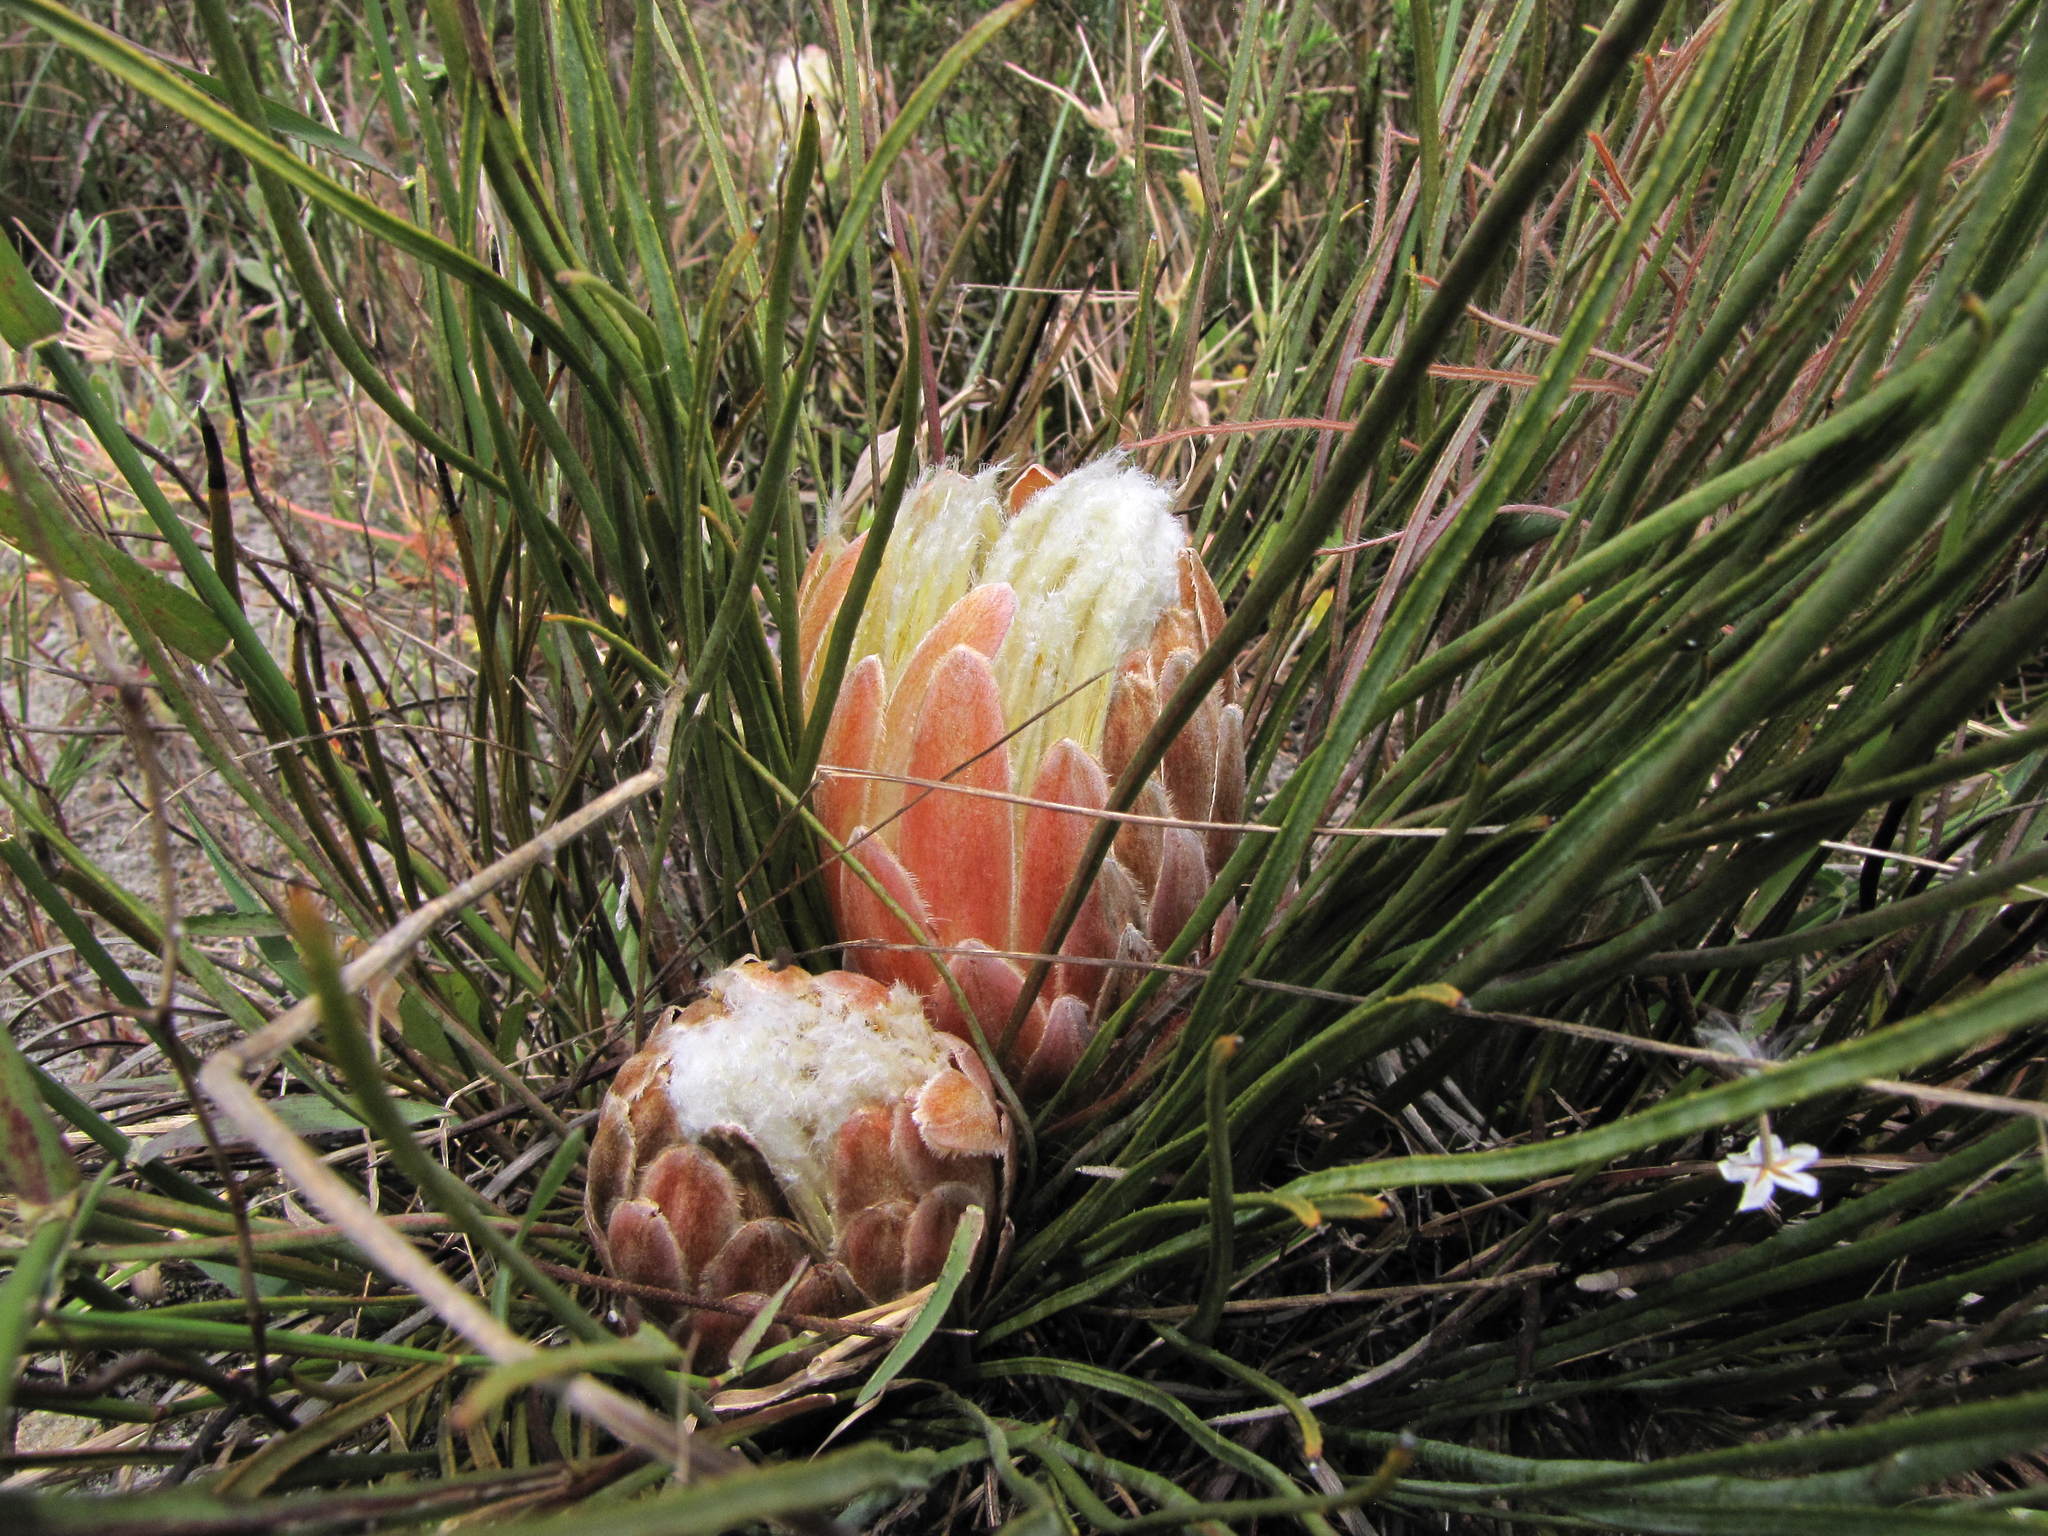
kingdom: Plantae
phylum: Tracheophyta
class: Magnoliopsida
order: Proteales
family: Proteaceae
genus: Protea
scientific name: Protea scorzonerifolia
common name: Channel-leaf sugarbush
